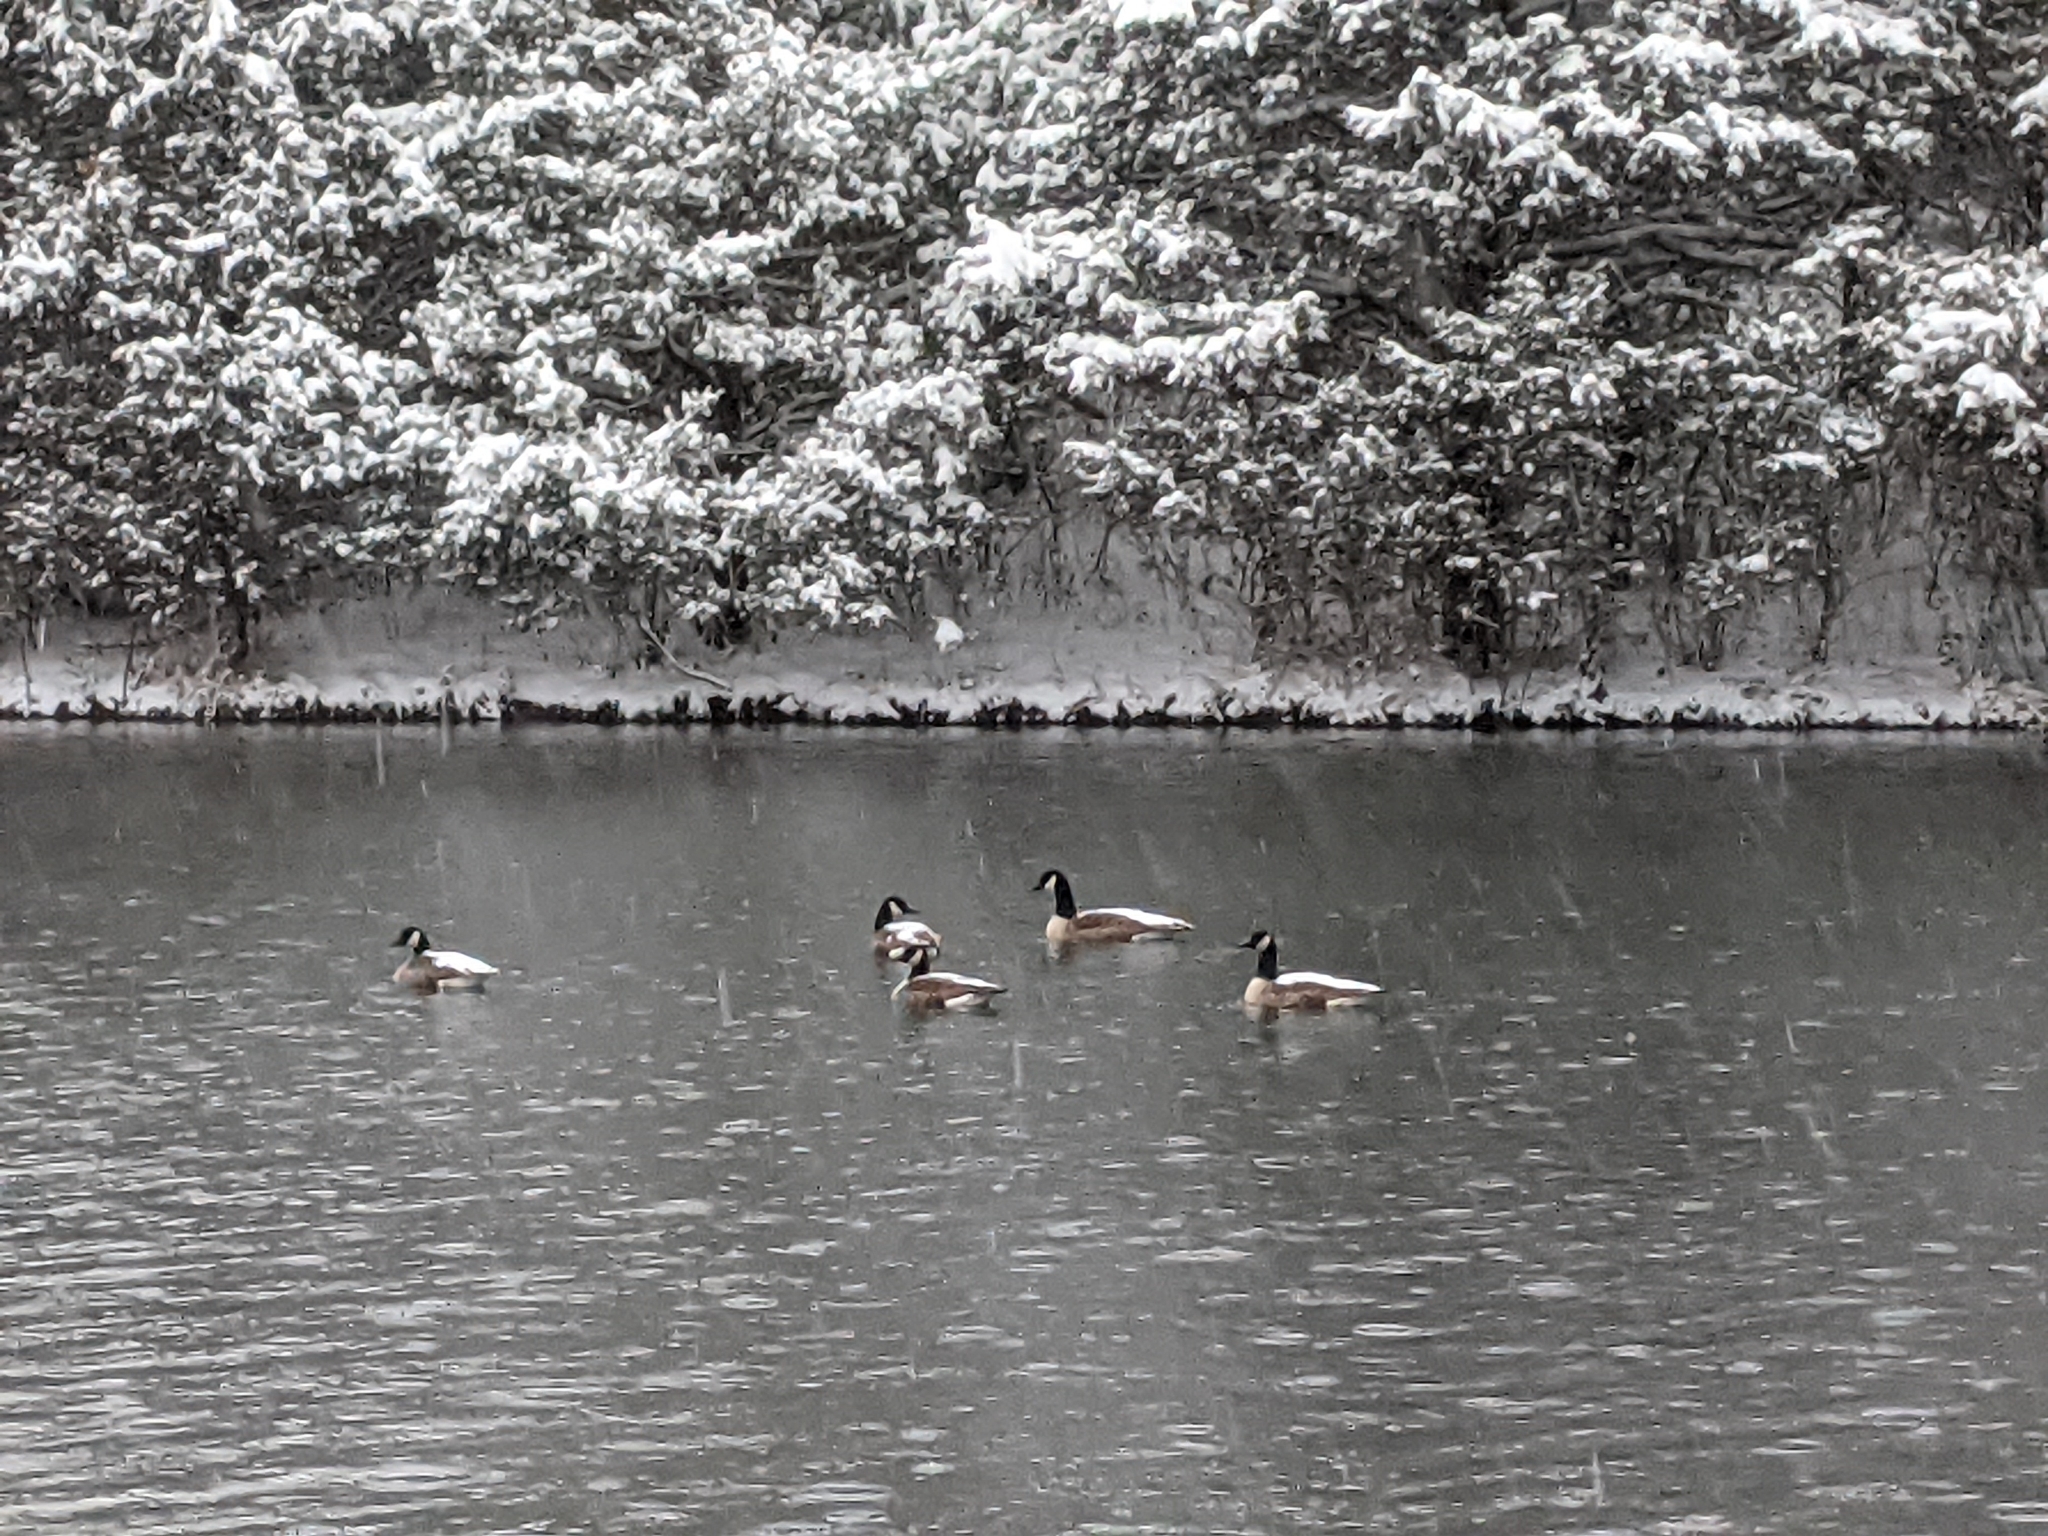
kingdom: Animalia
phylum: Chordata
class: Aves
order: Anseriformes
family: Anatidae
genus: Branta
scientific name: Branta canadensis
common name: Canada goose
